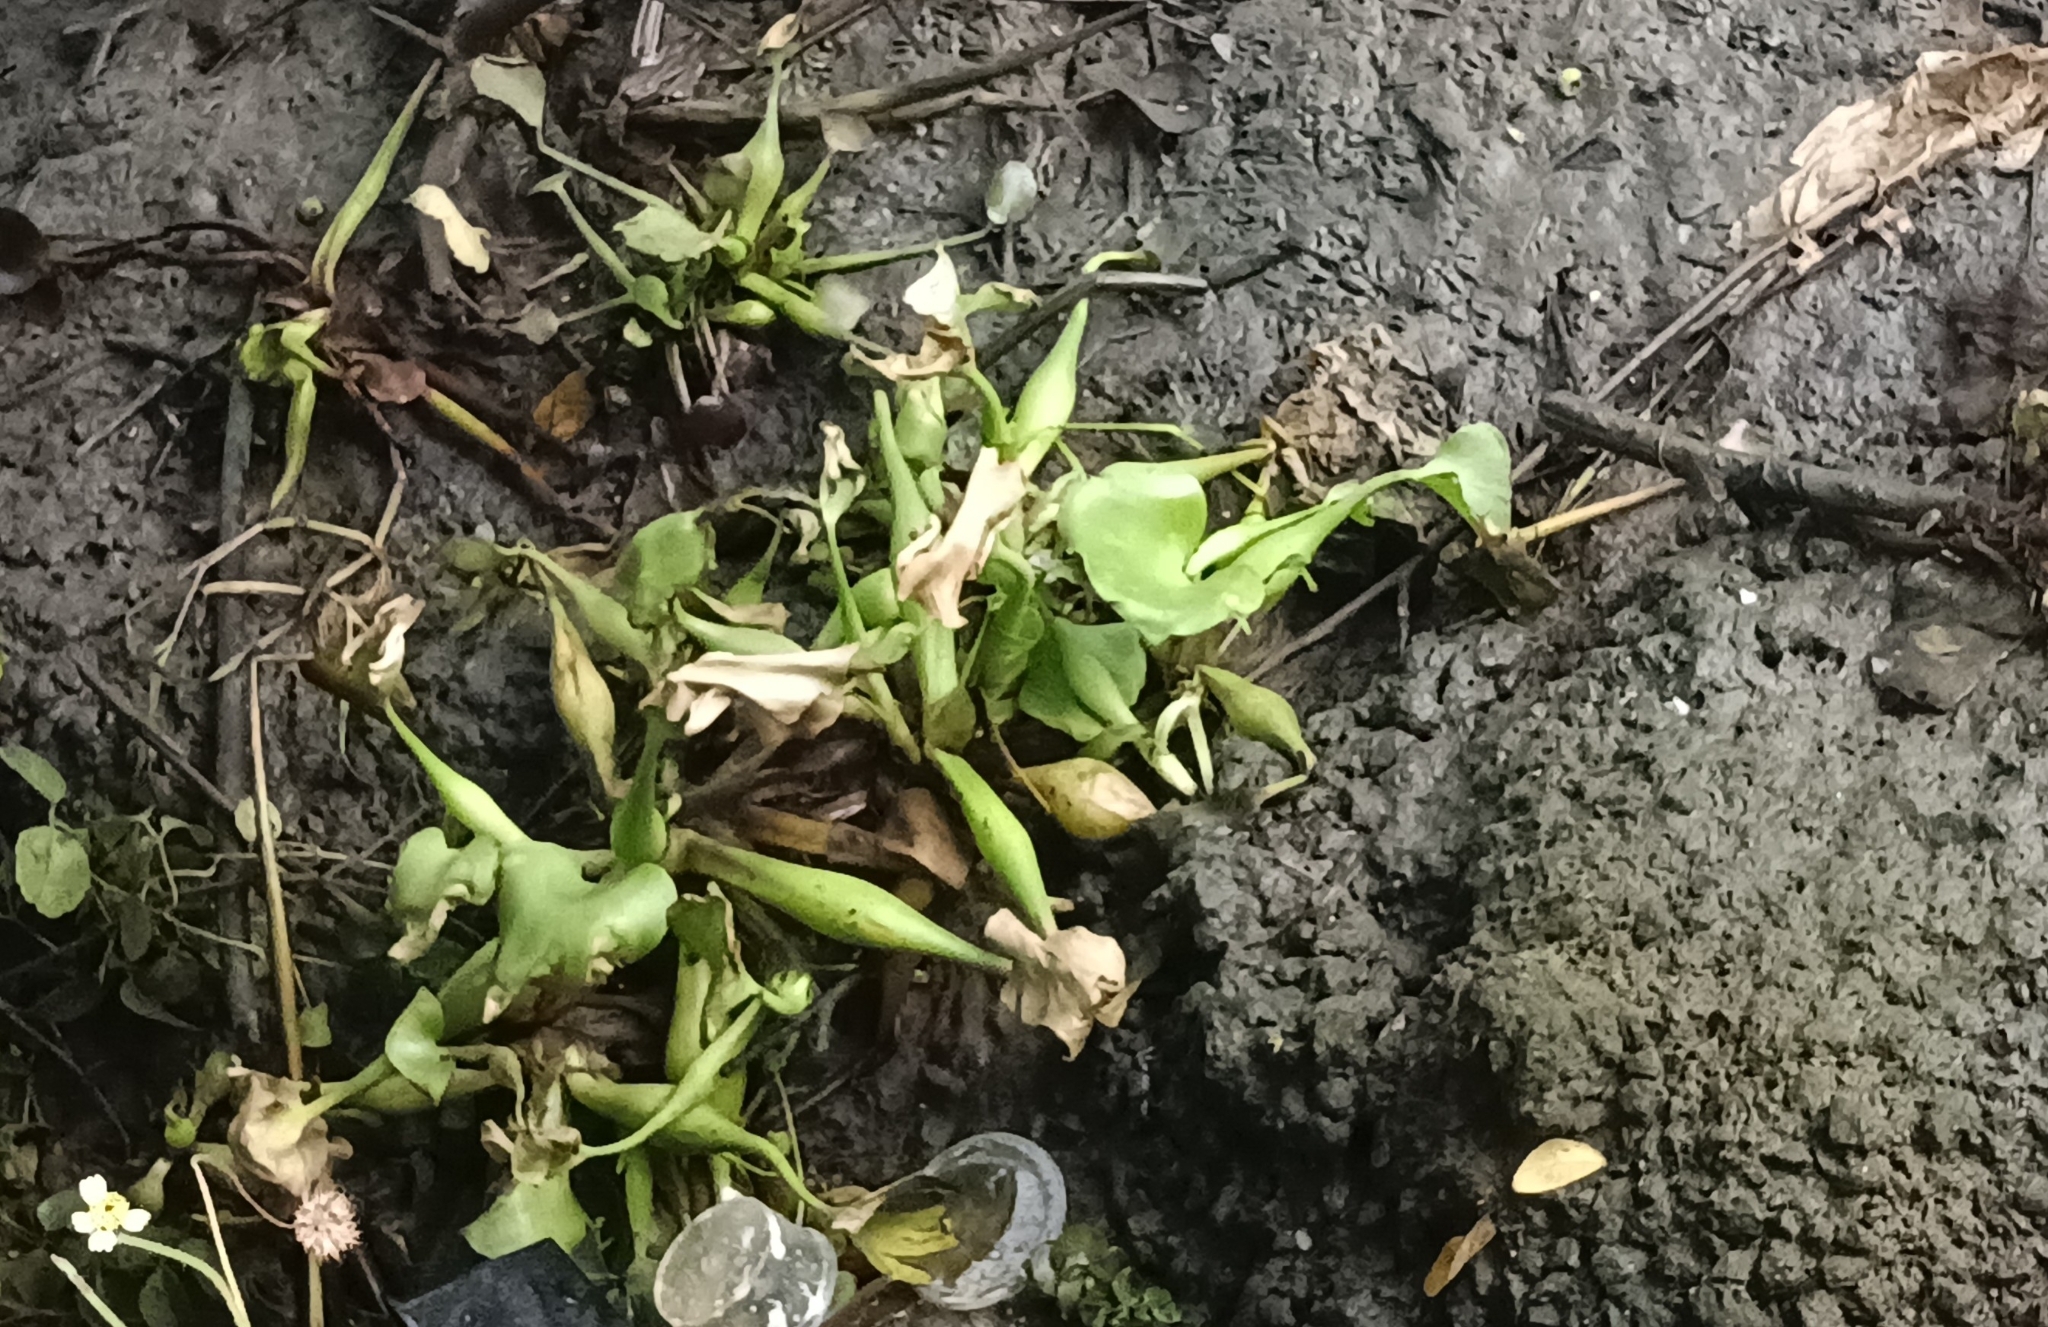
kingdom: Plantae
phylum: Tracheophyta
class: Liliopsida
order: Commelinales
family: Pontederiaceae
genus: Pontederia
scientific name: Pontederia crassipes
